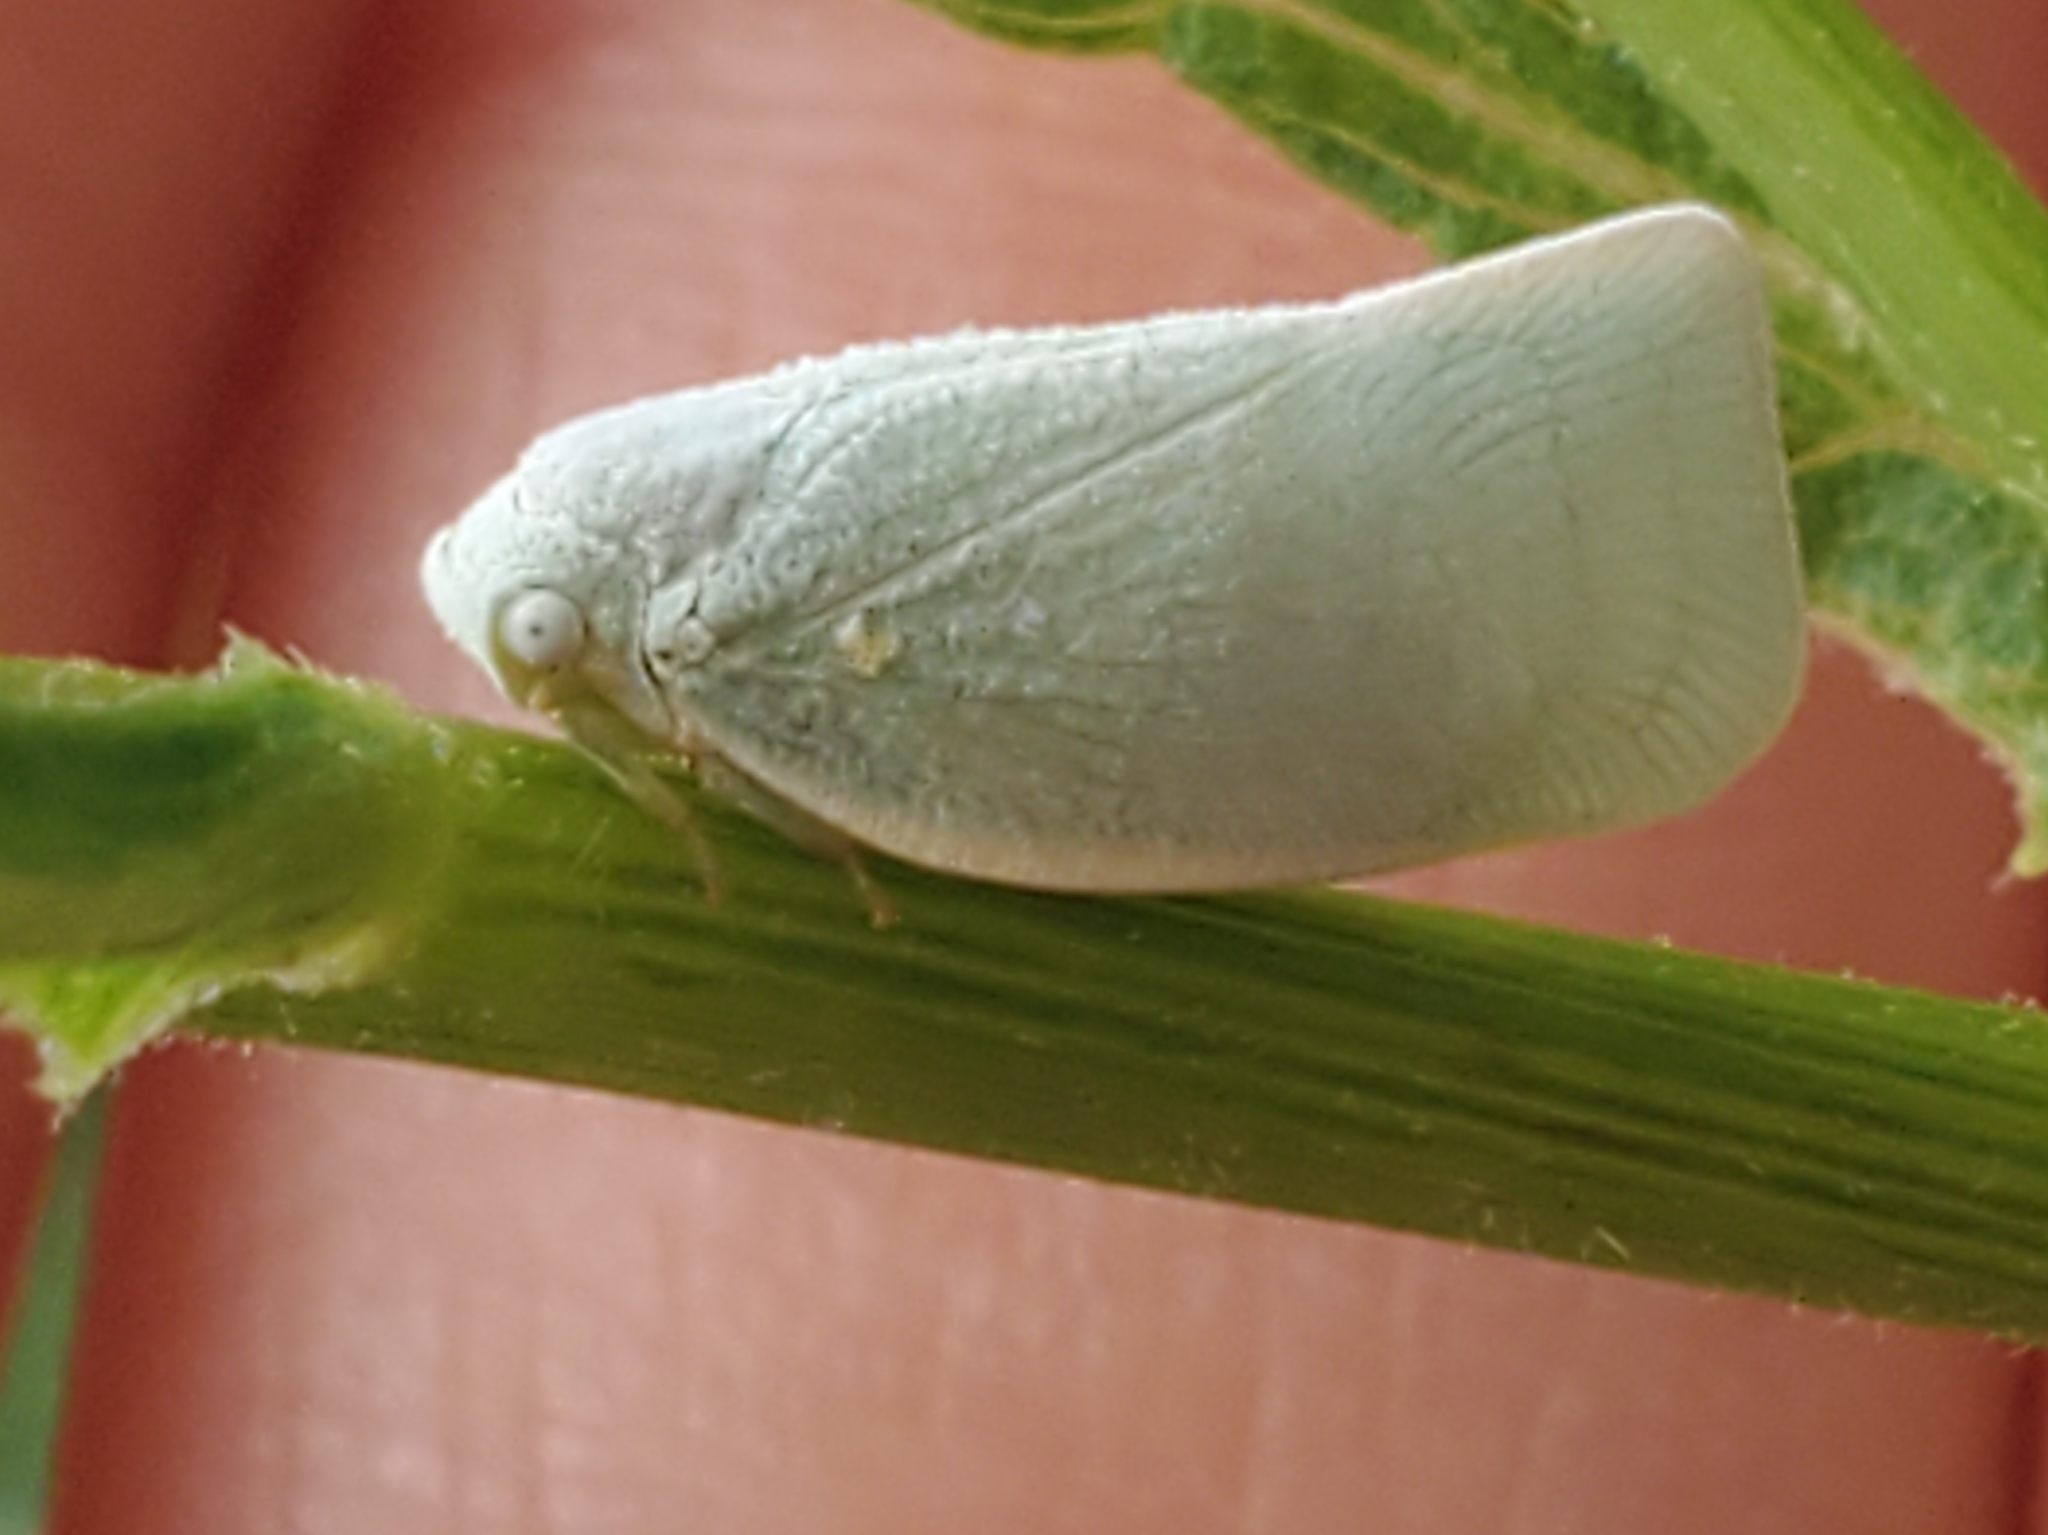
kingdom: Animalia
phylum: Arthropoda
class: Insecta
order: Hemiptera
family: Flatidae
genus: Flatormenis
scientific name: Flatormenis proxima
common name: Northern flatid planthopper
